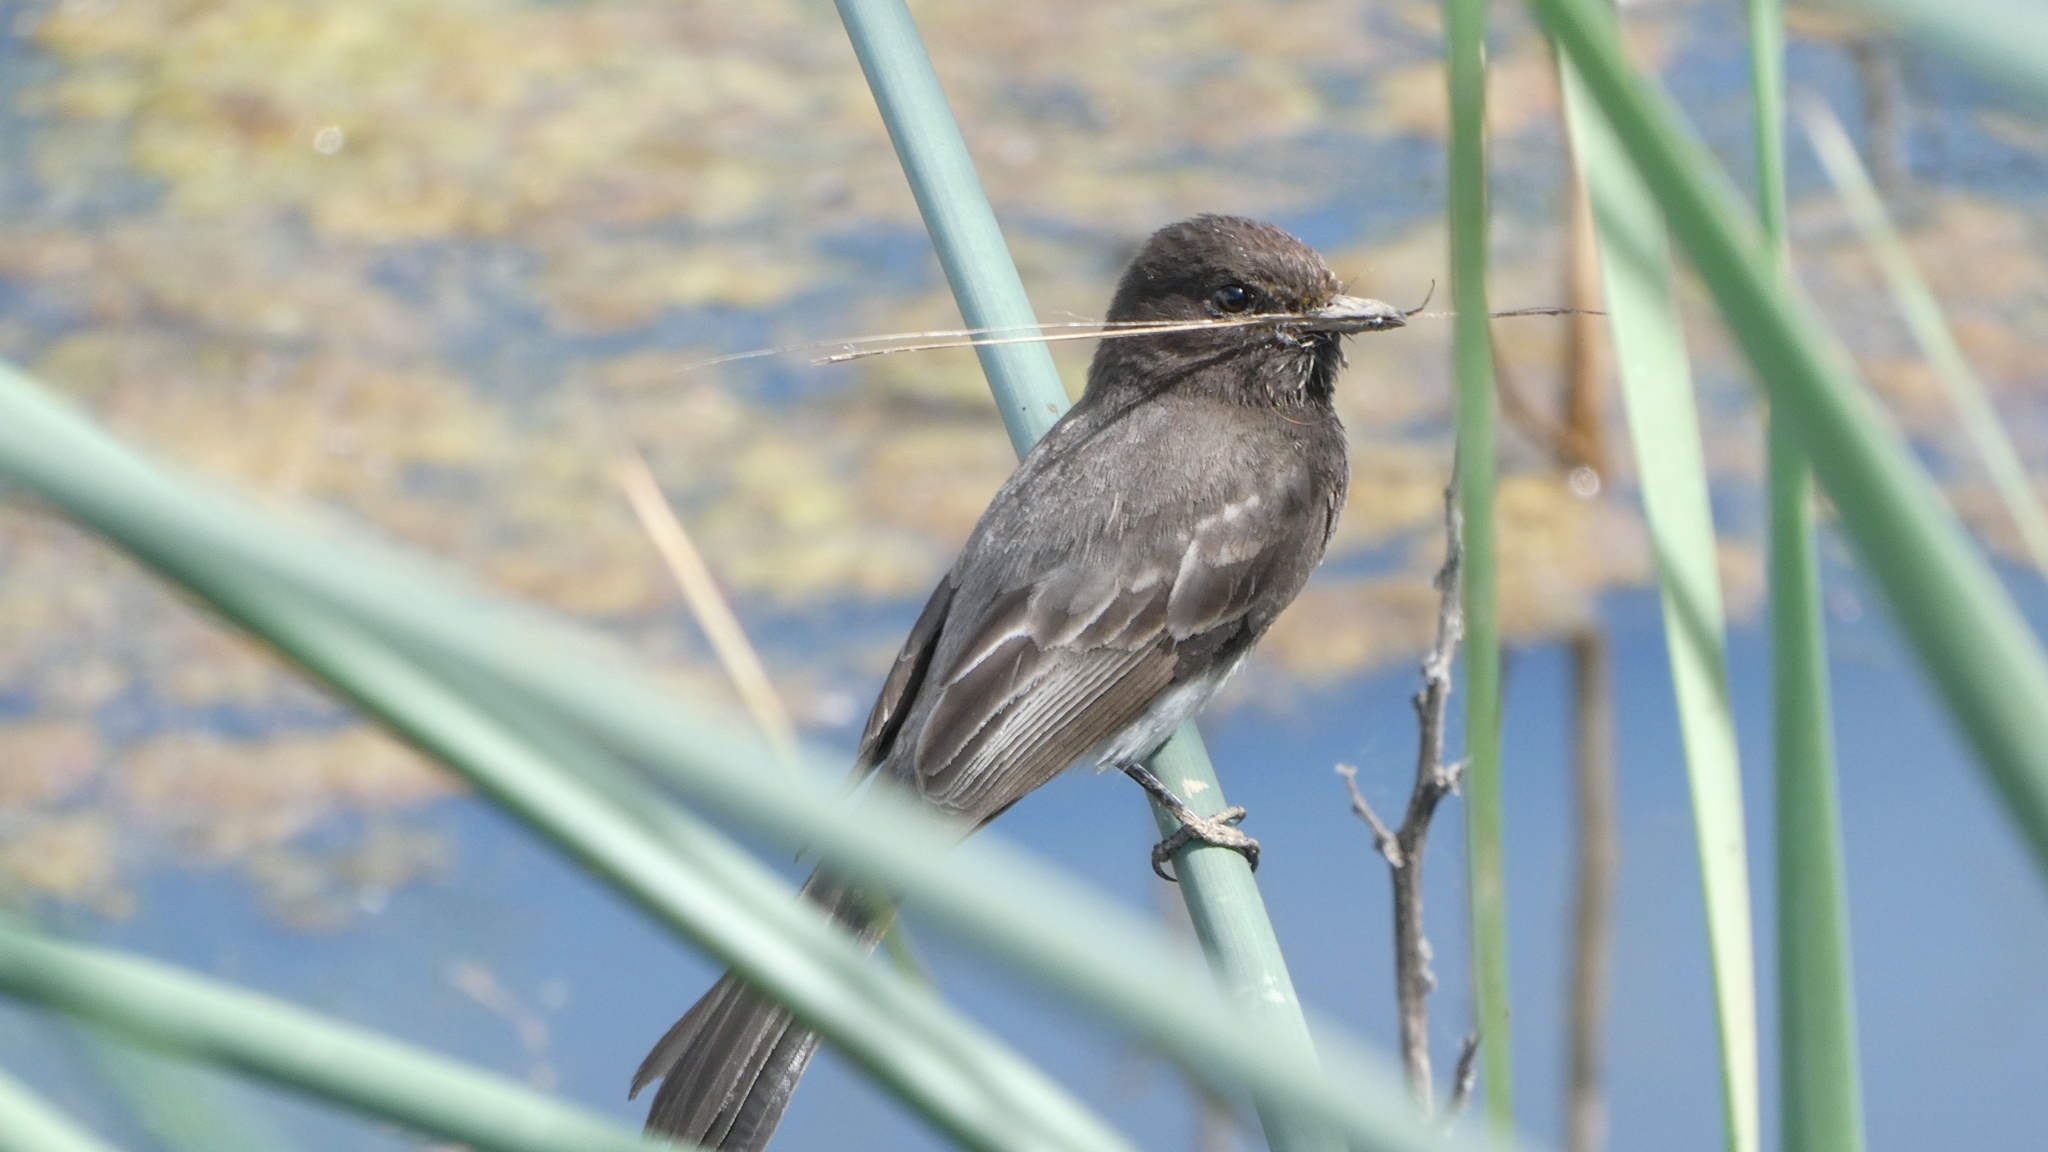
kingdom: Animalia
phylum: Chordata
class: Aves
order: Passeriformes
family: Tyrannidae
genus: Sayornis
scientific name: Sayornis nigricans
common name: Black phoebe
